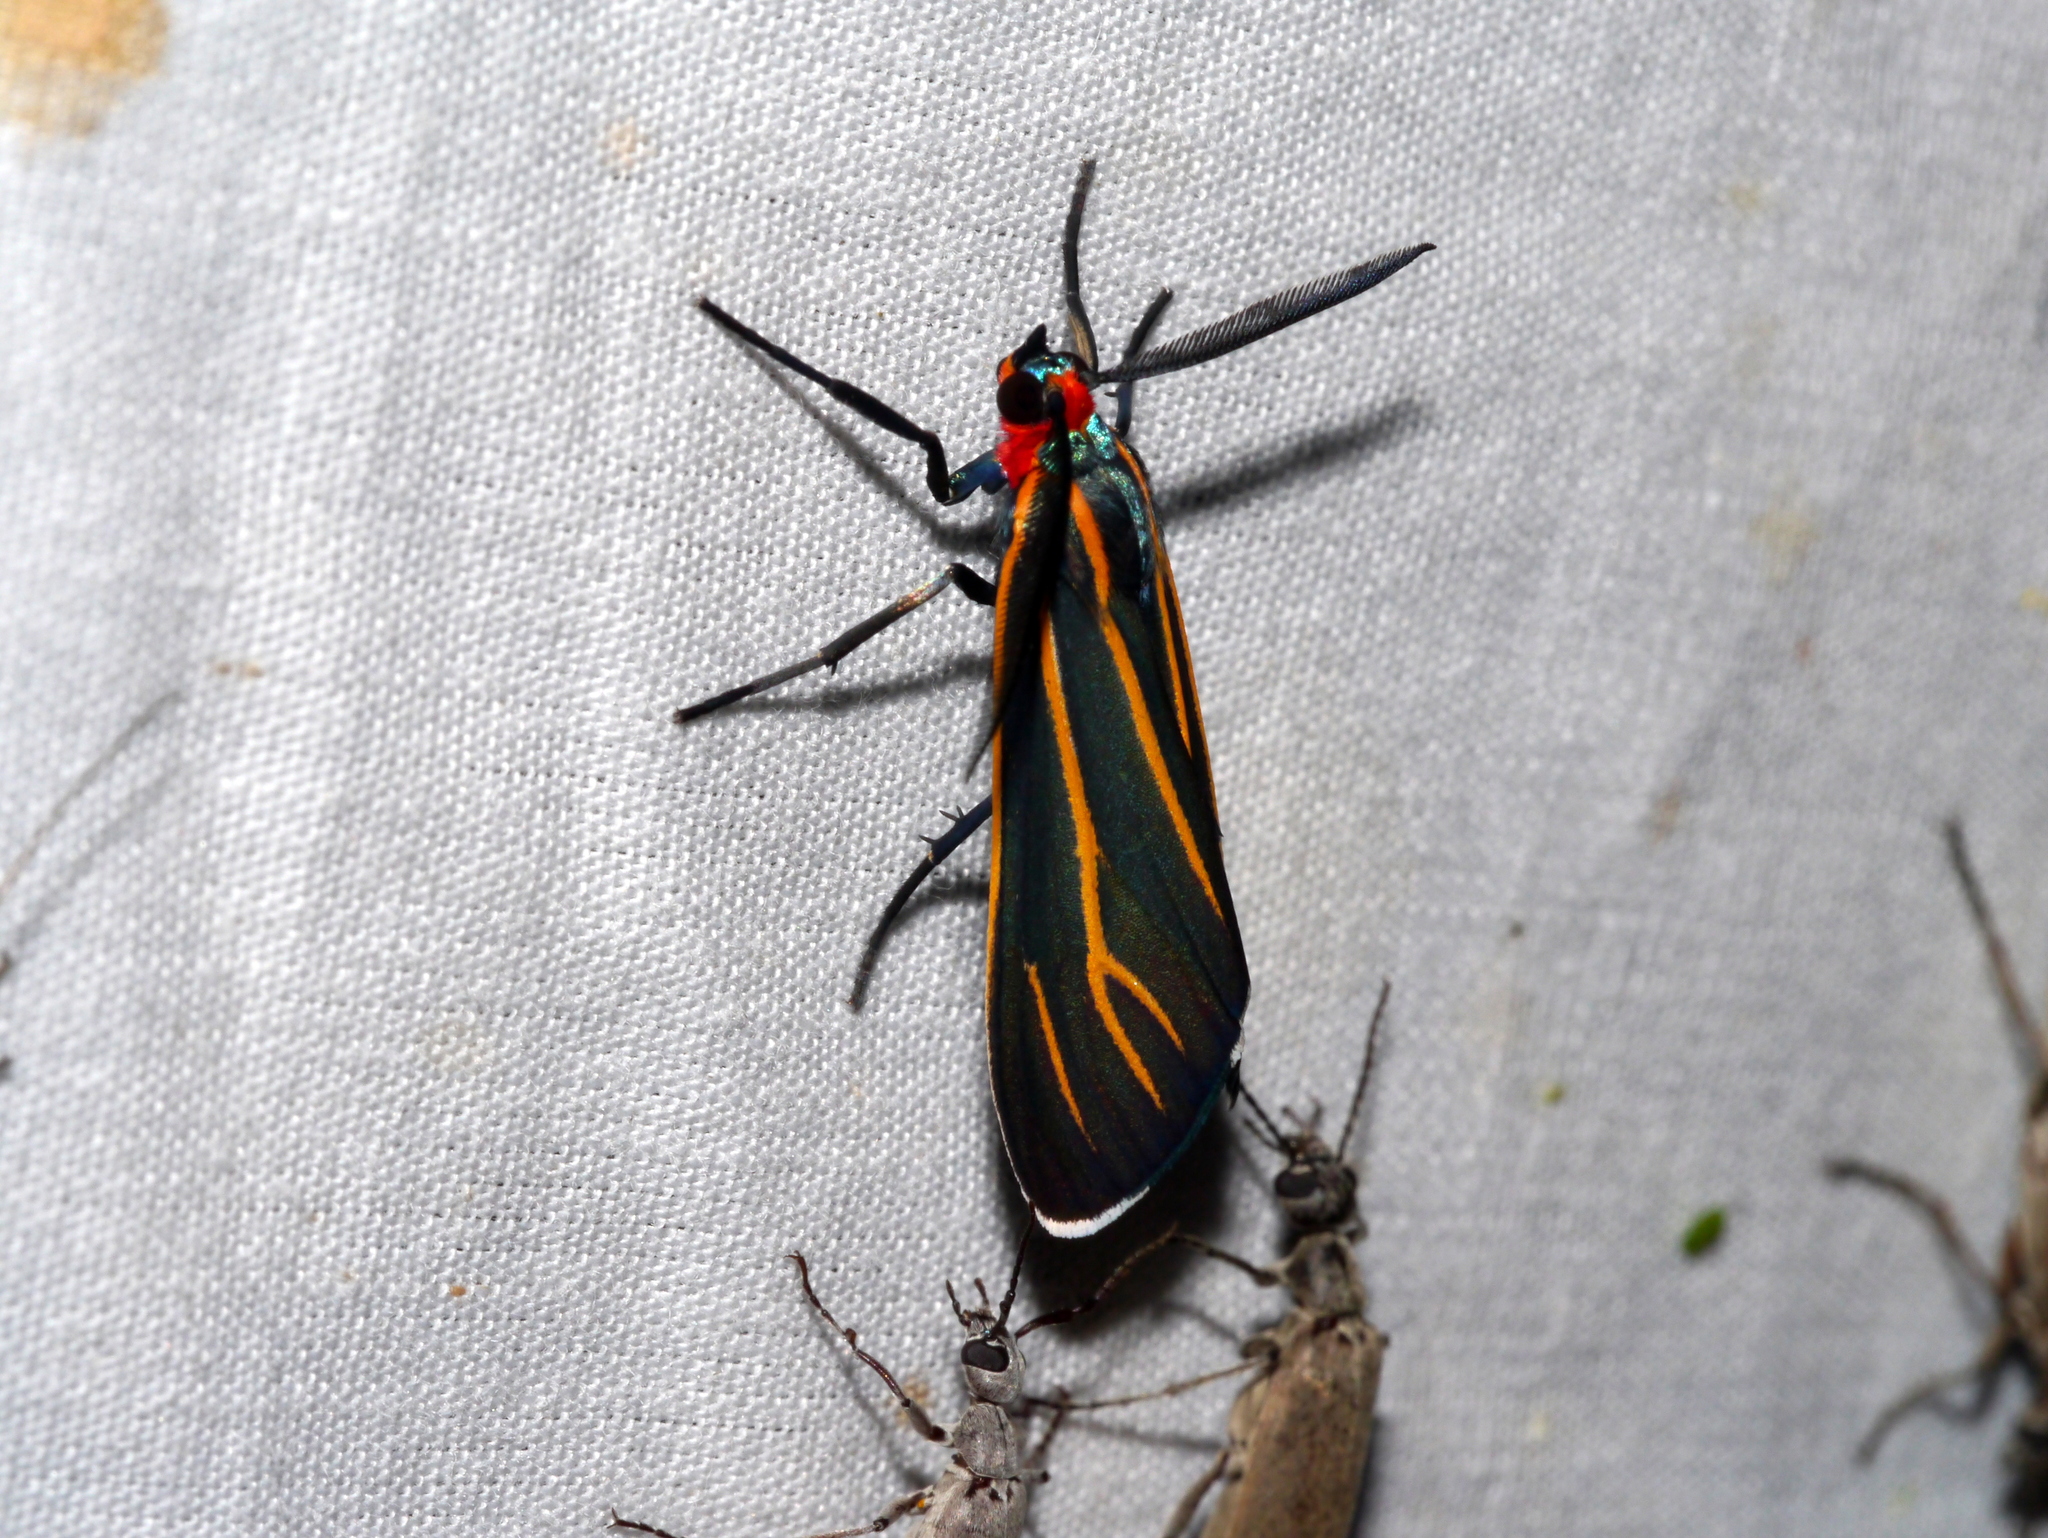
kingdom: Animalia
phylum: Arthropoda
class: Insecta
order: Lepidoptera
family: Erebidae
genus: Ctenucha
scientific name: Ctenucha venosa
